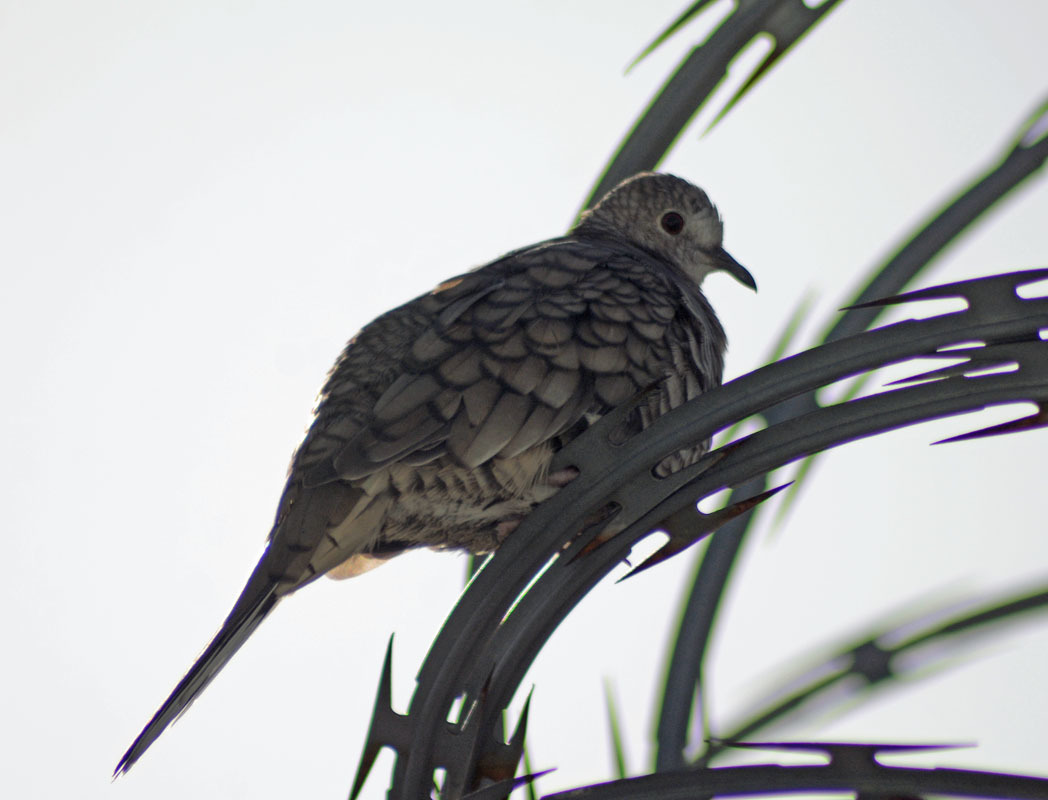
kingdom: Animalia
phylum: Chordata
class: Aves
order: Columbiformes
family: Columbidae
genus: Columbina
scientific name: Columbina inca
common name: Inca dove
